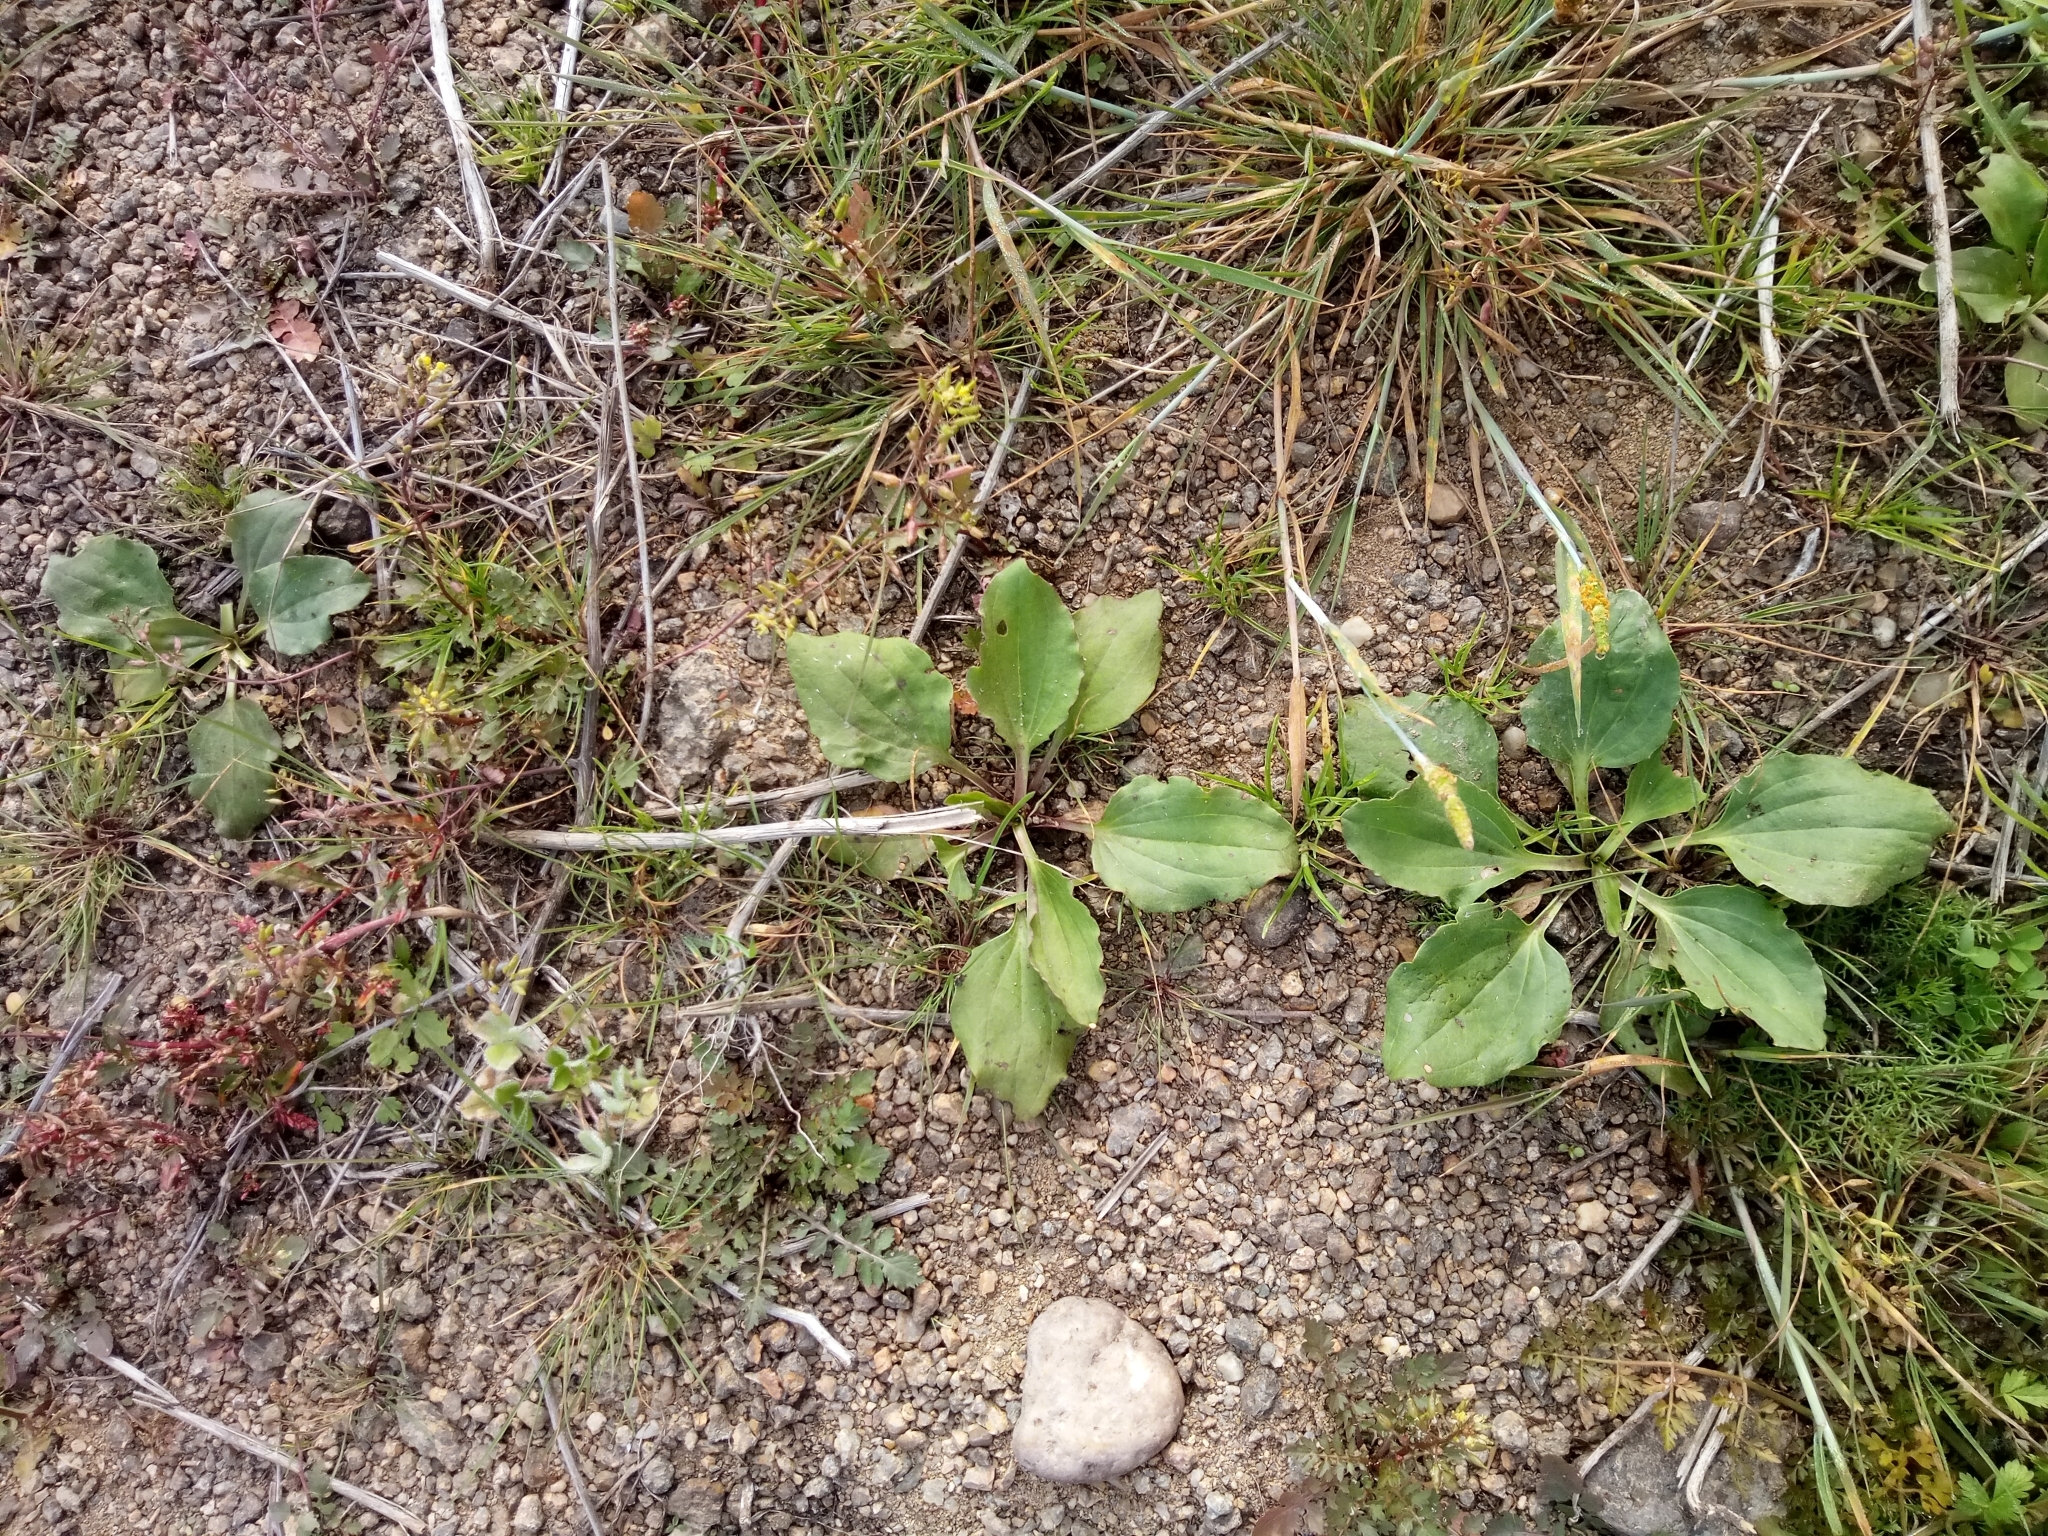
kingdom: Plantae
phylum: Tracheophyta
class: Magnoliopsida
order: Lamiales
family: Plantaginaceae
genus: Plantago
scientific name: Plantago major
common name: Common plantain
